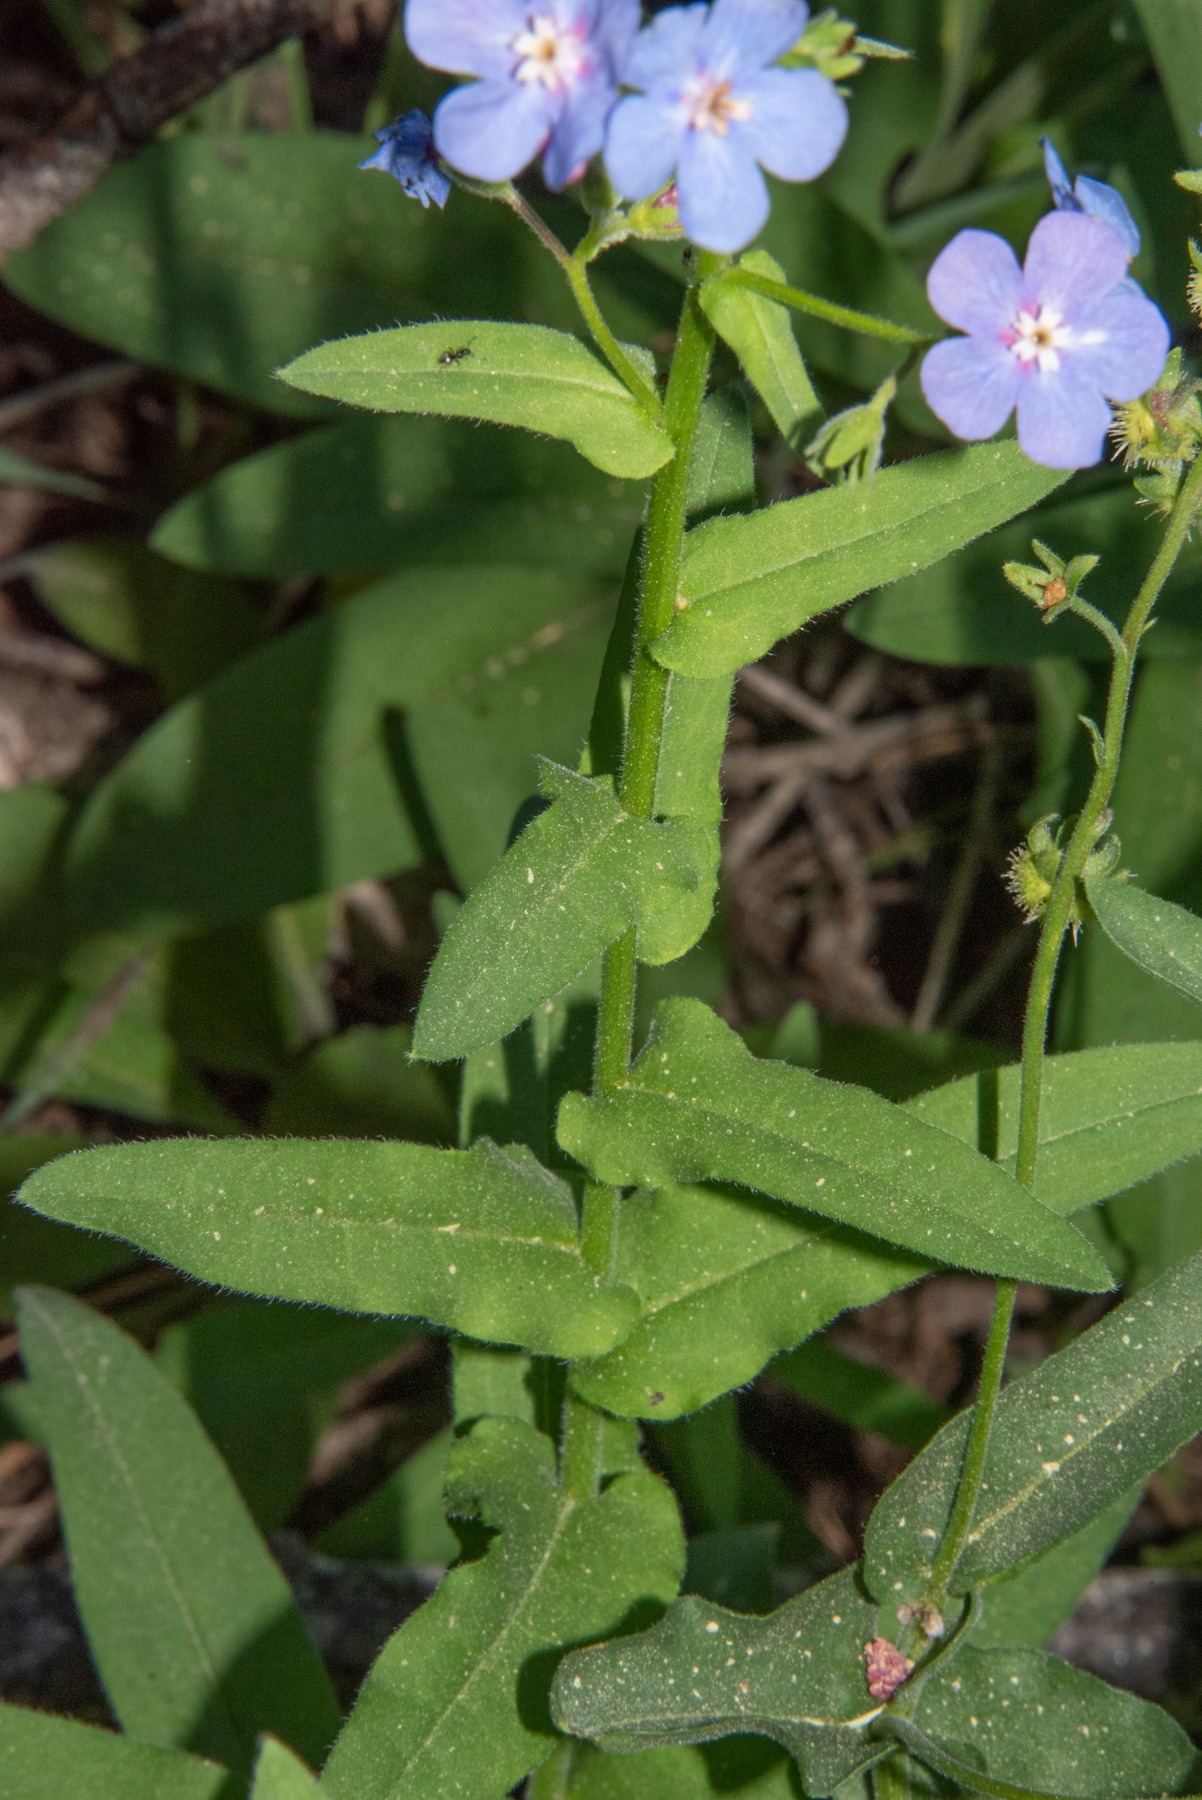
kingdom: Plantae
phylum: Tracheophyta
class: Magnoliopsida
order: Boraginales
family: Boraginaceae
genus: Hackelia
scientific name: Hackelia velutina
